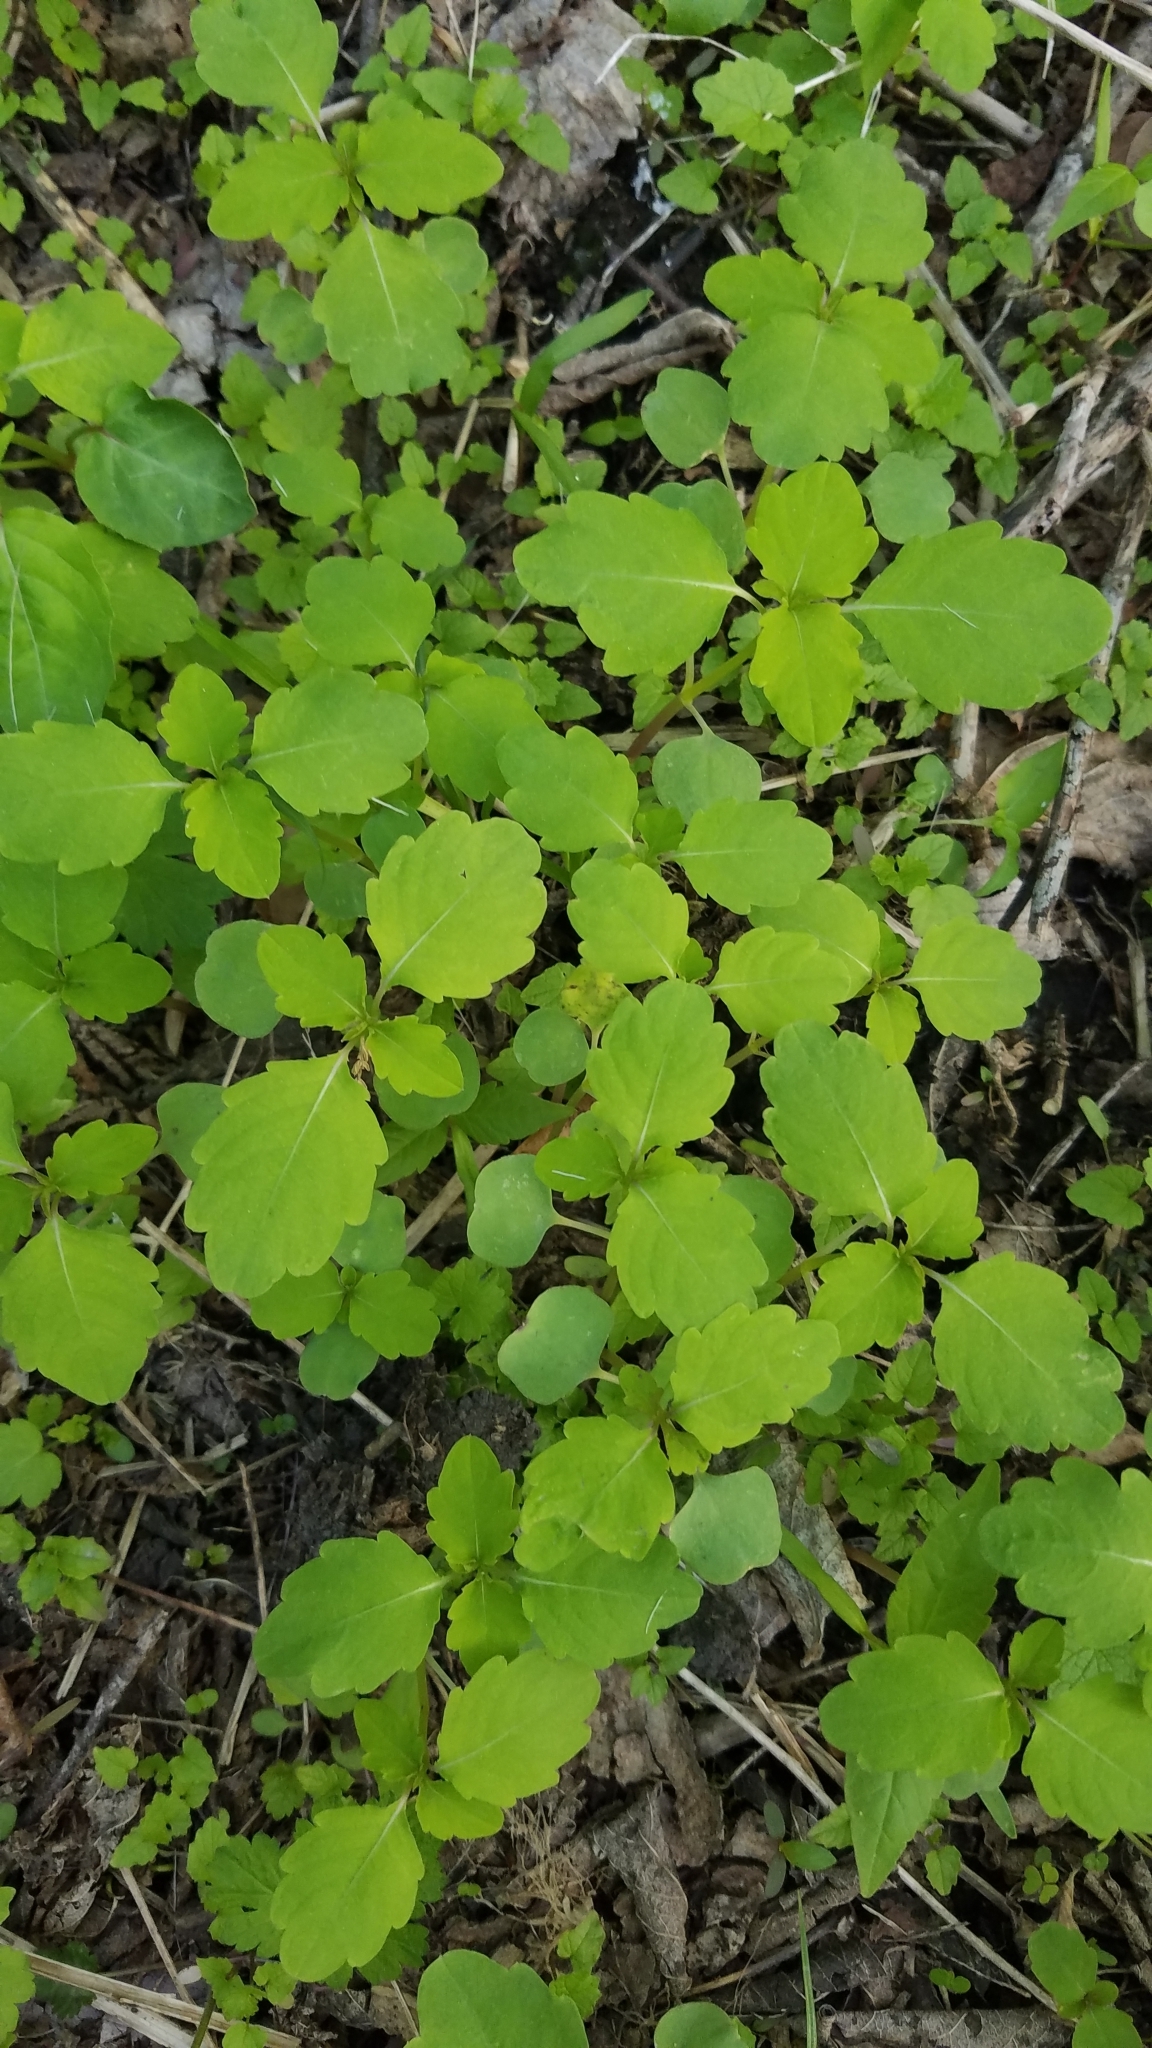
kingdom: Plantae
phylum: Tracheophyta
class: Magnoliopsida
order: Ericales
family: Balsaminaceae
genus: Impatiens
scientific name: Impatiens capensis
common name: Orange balsam
